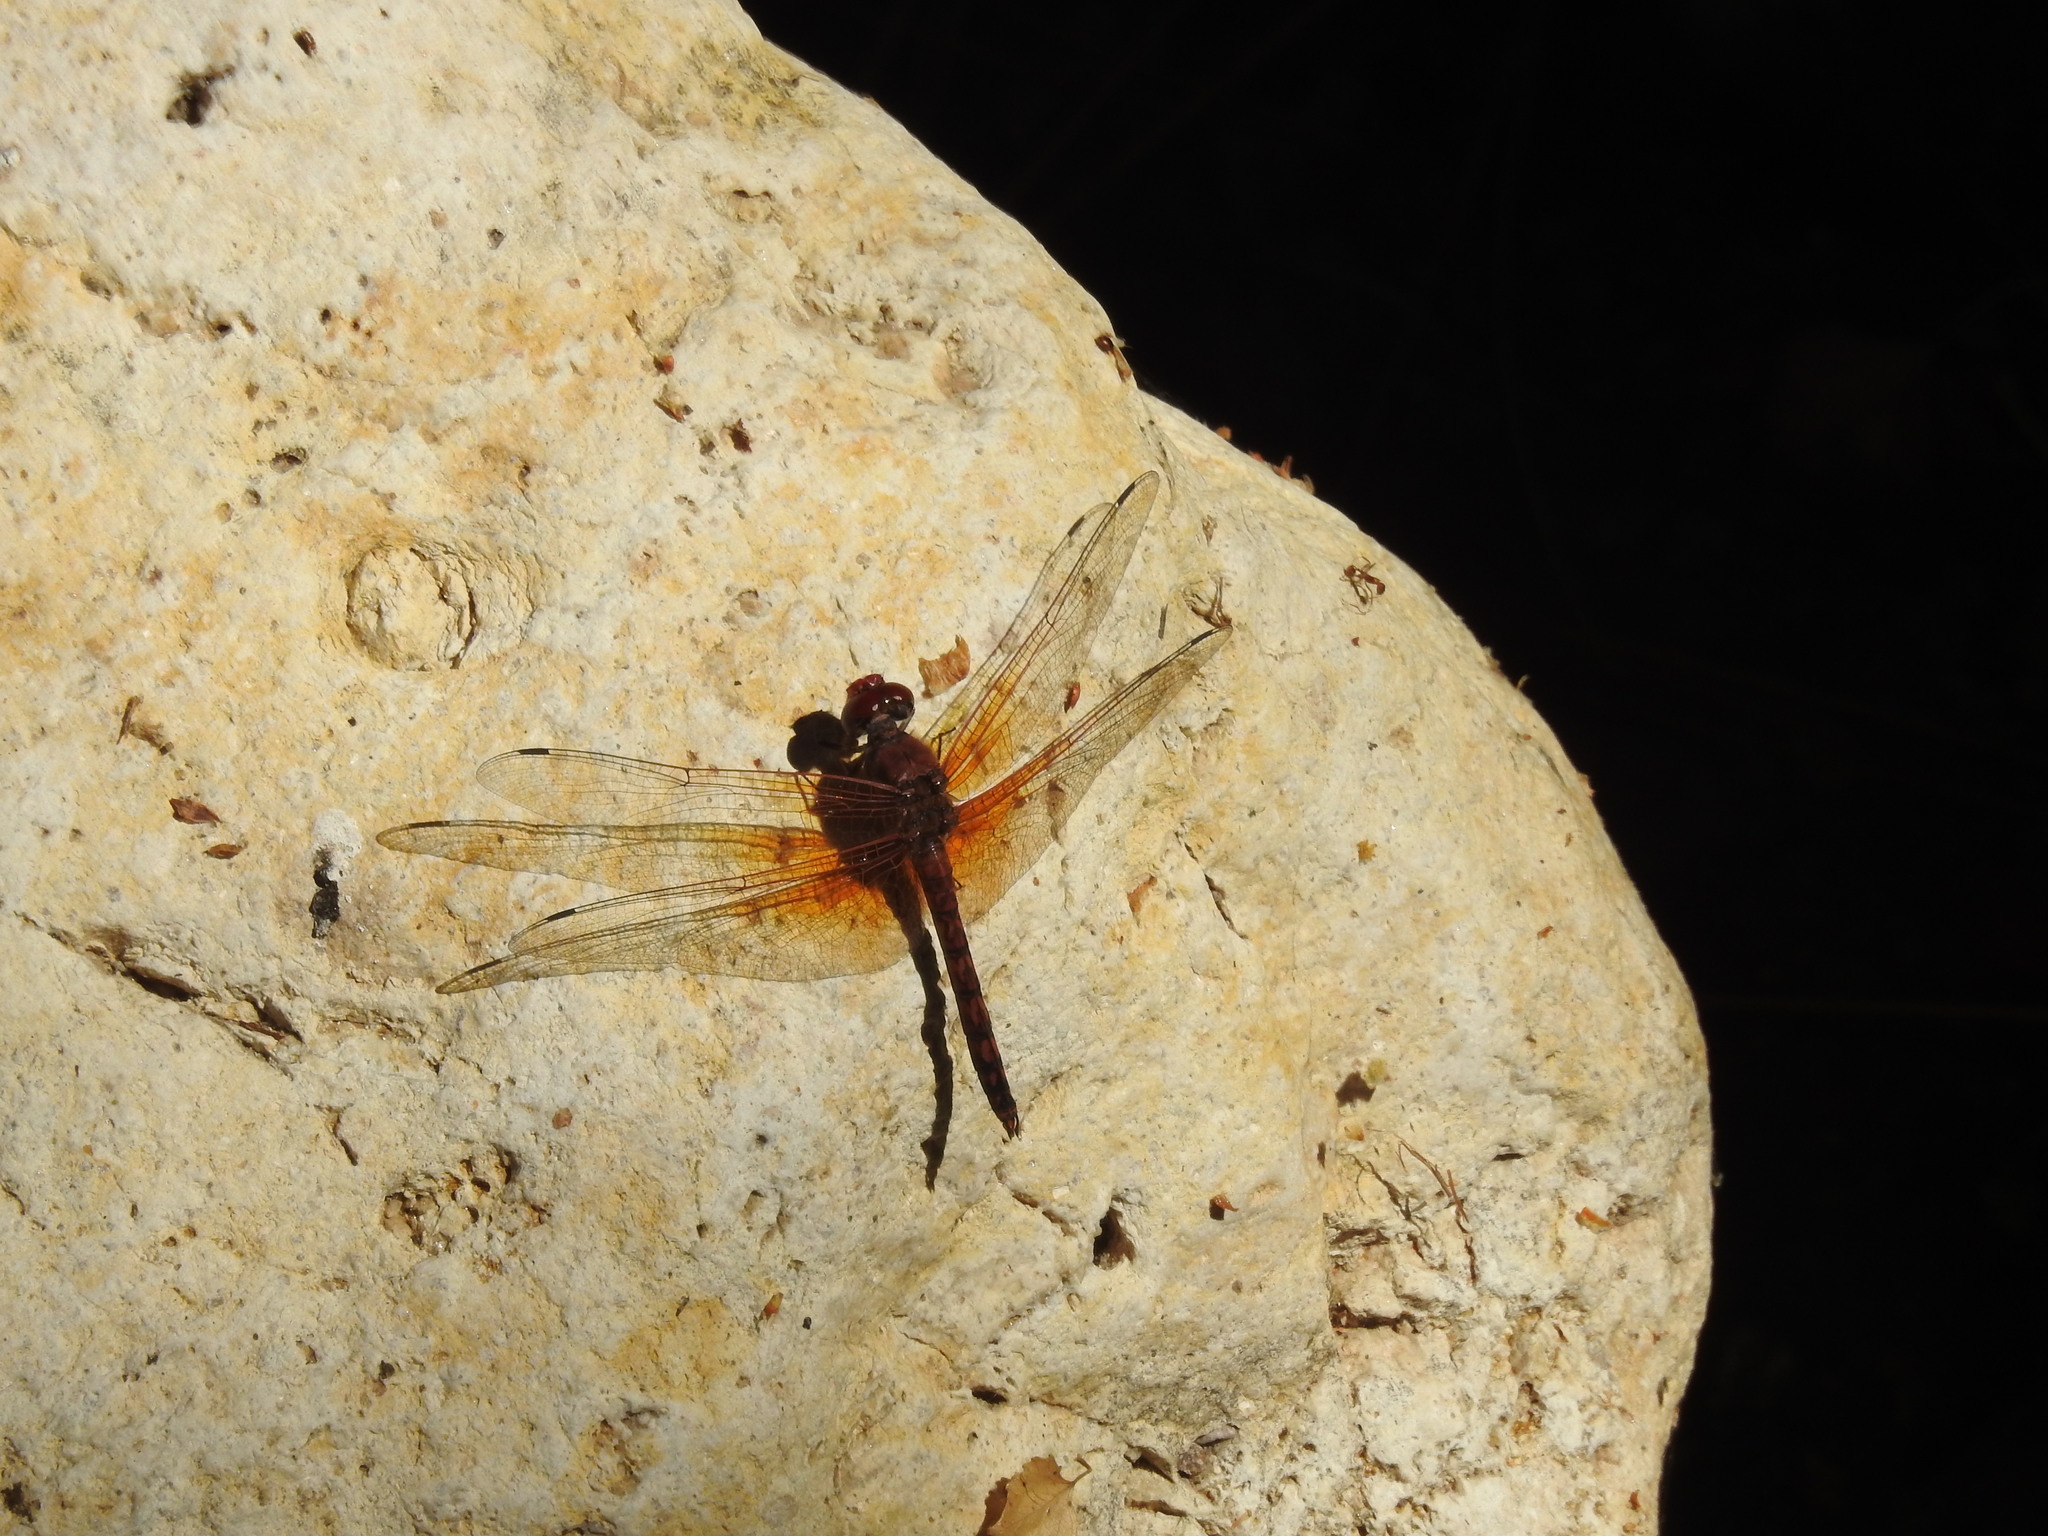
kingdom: Animalia
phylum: Arthropoda
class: Insecta
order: Odonata
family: Libellulidae
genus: Paltothemis
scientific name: Paltothemis lineatipes
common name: Red rock skimmer
